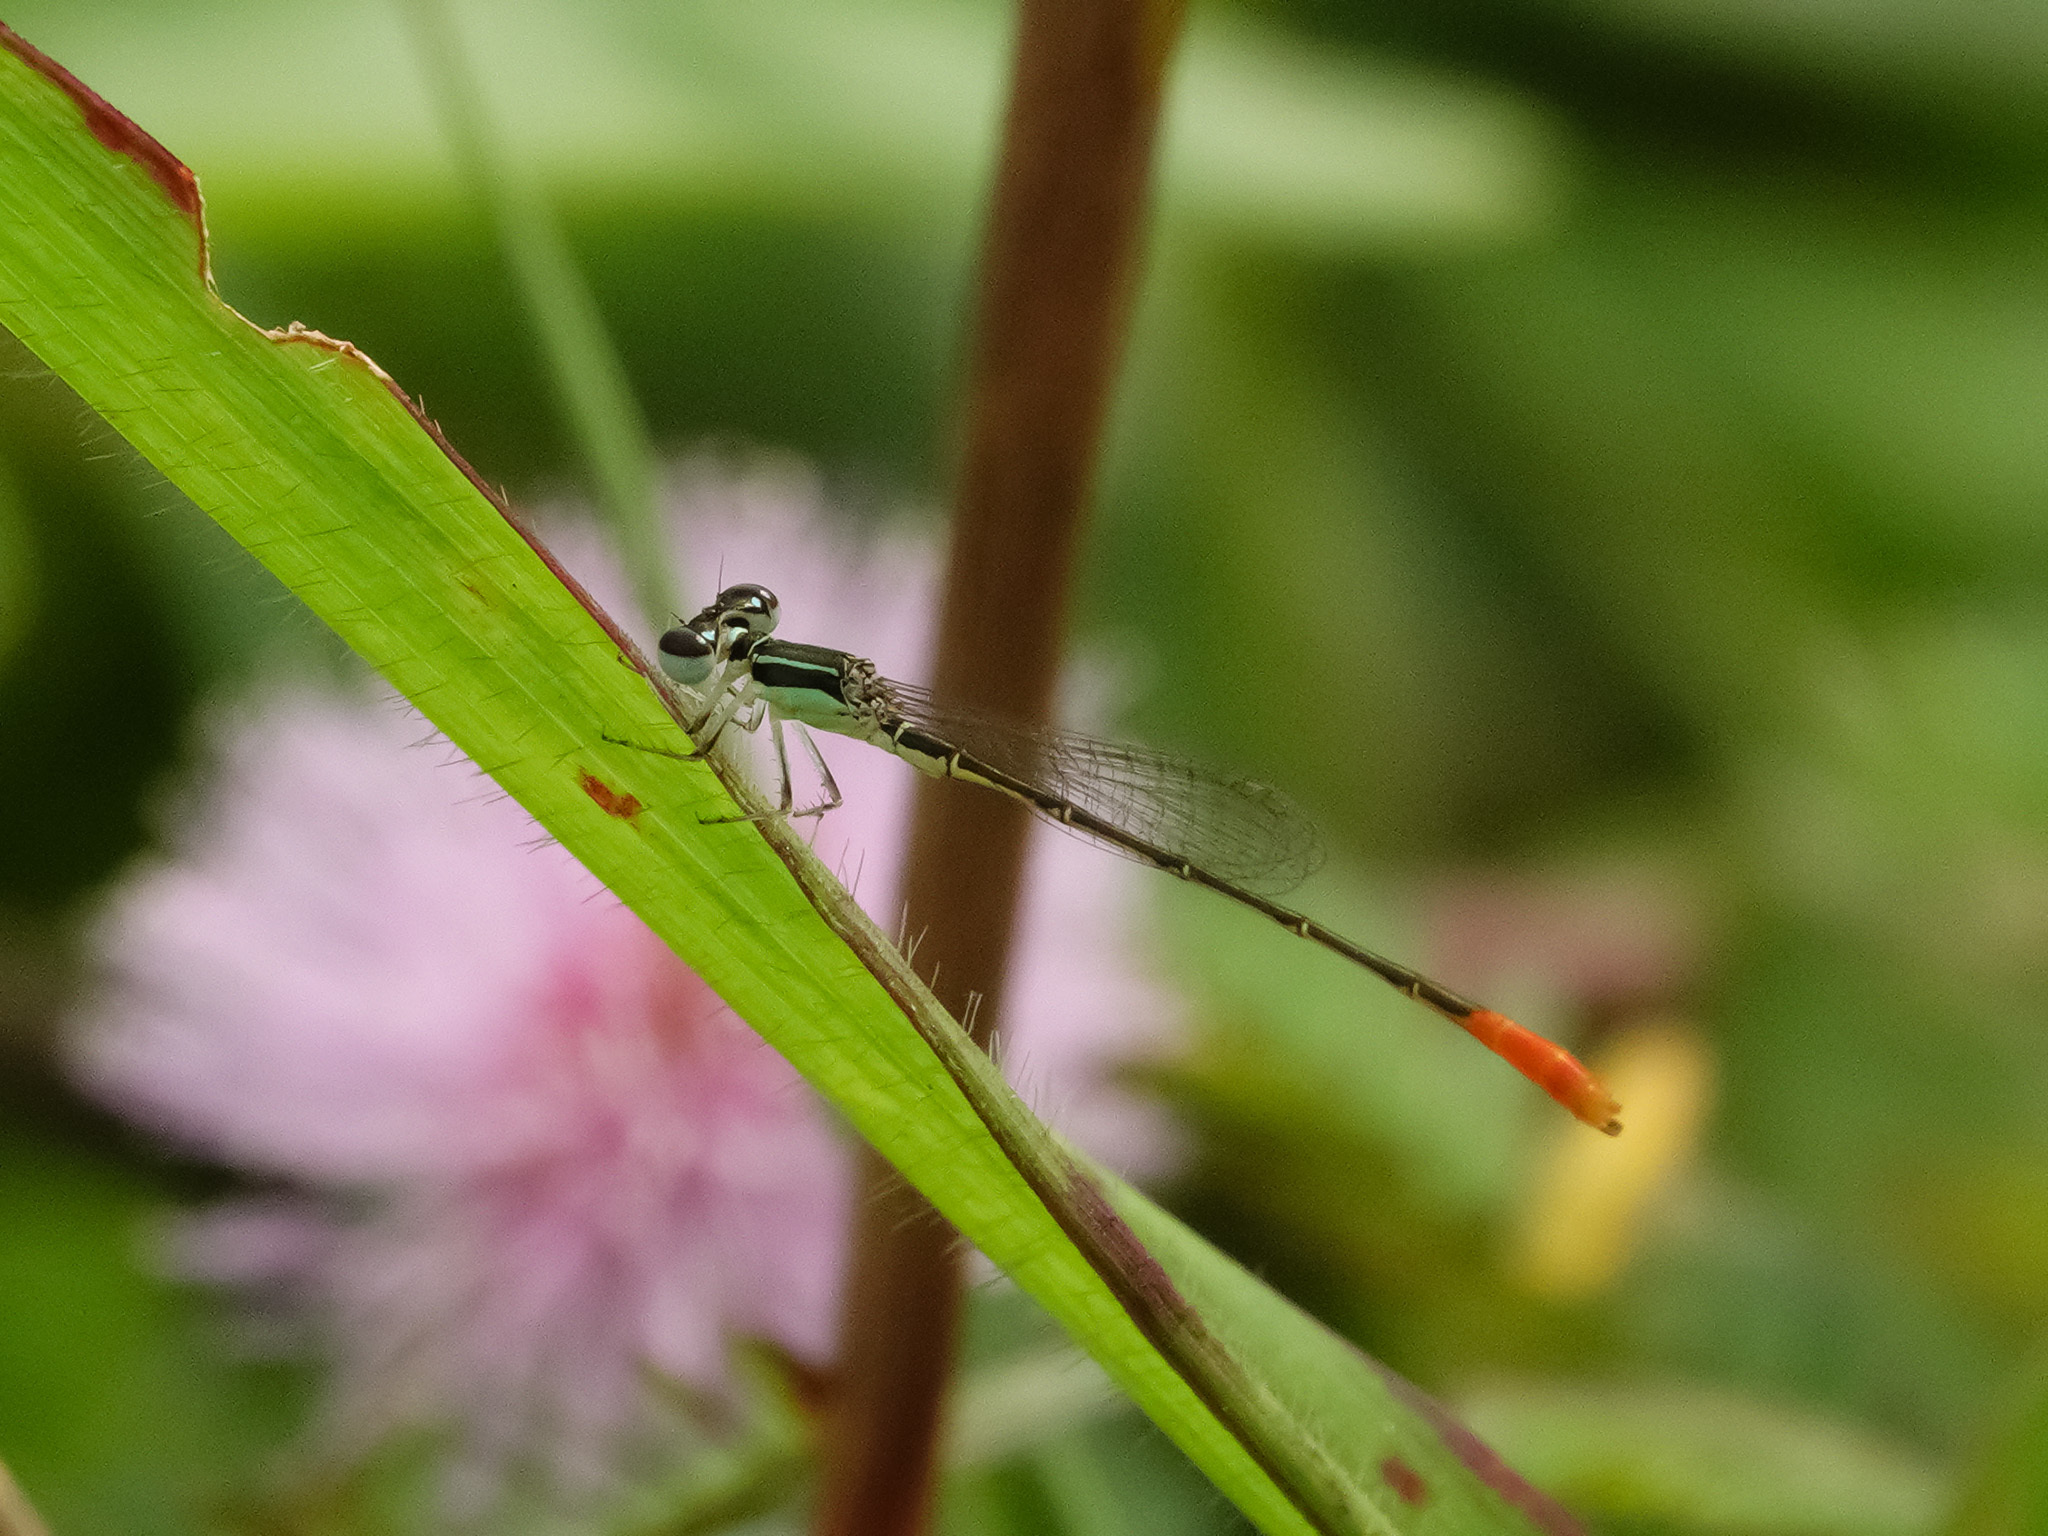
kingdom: Animalia
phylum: Arthropoda
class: Insecta
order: Odonata
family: Coenagrionidae
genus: Agriocnemis
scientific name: Agriocnemis femina
